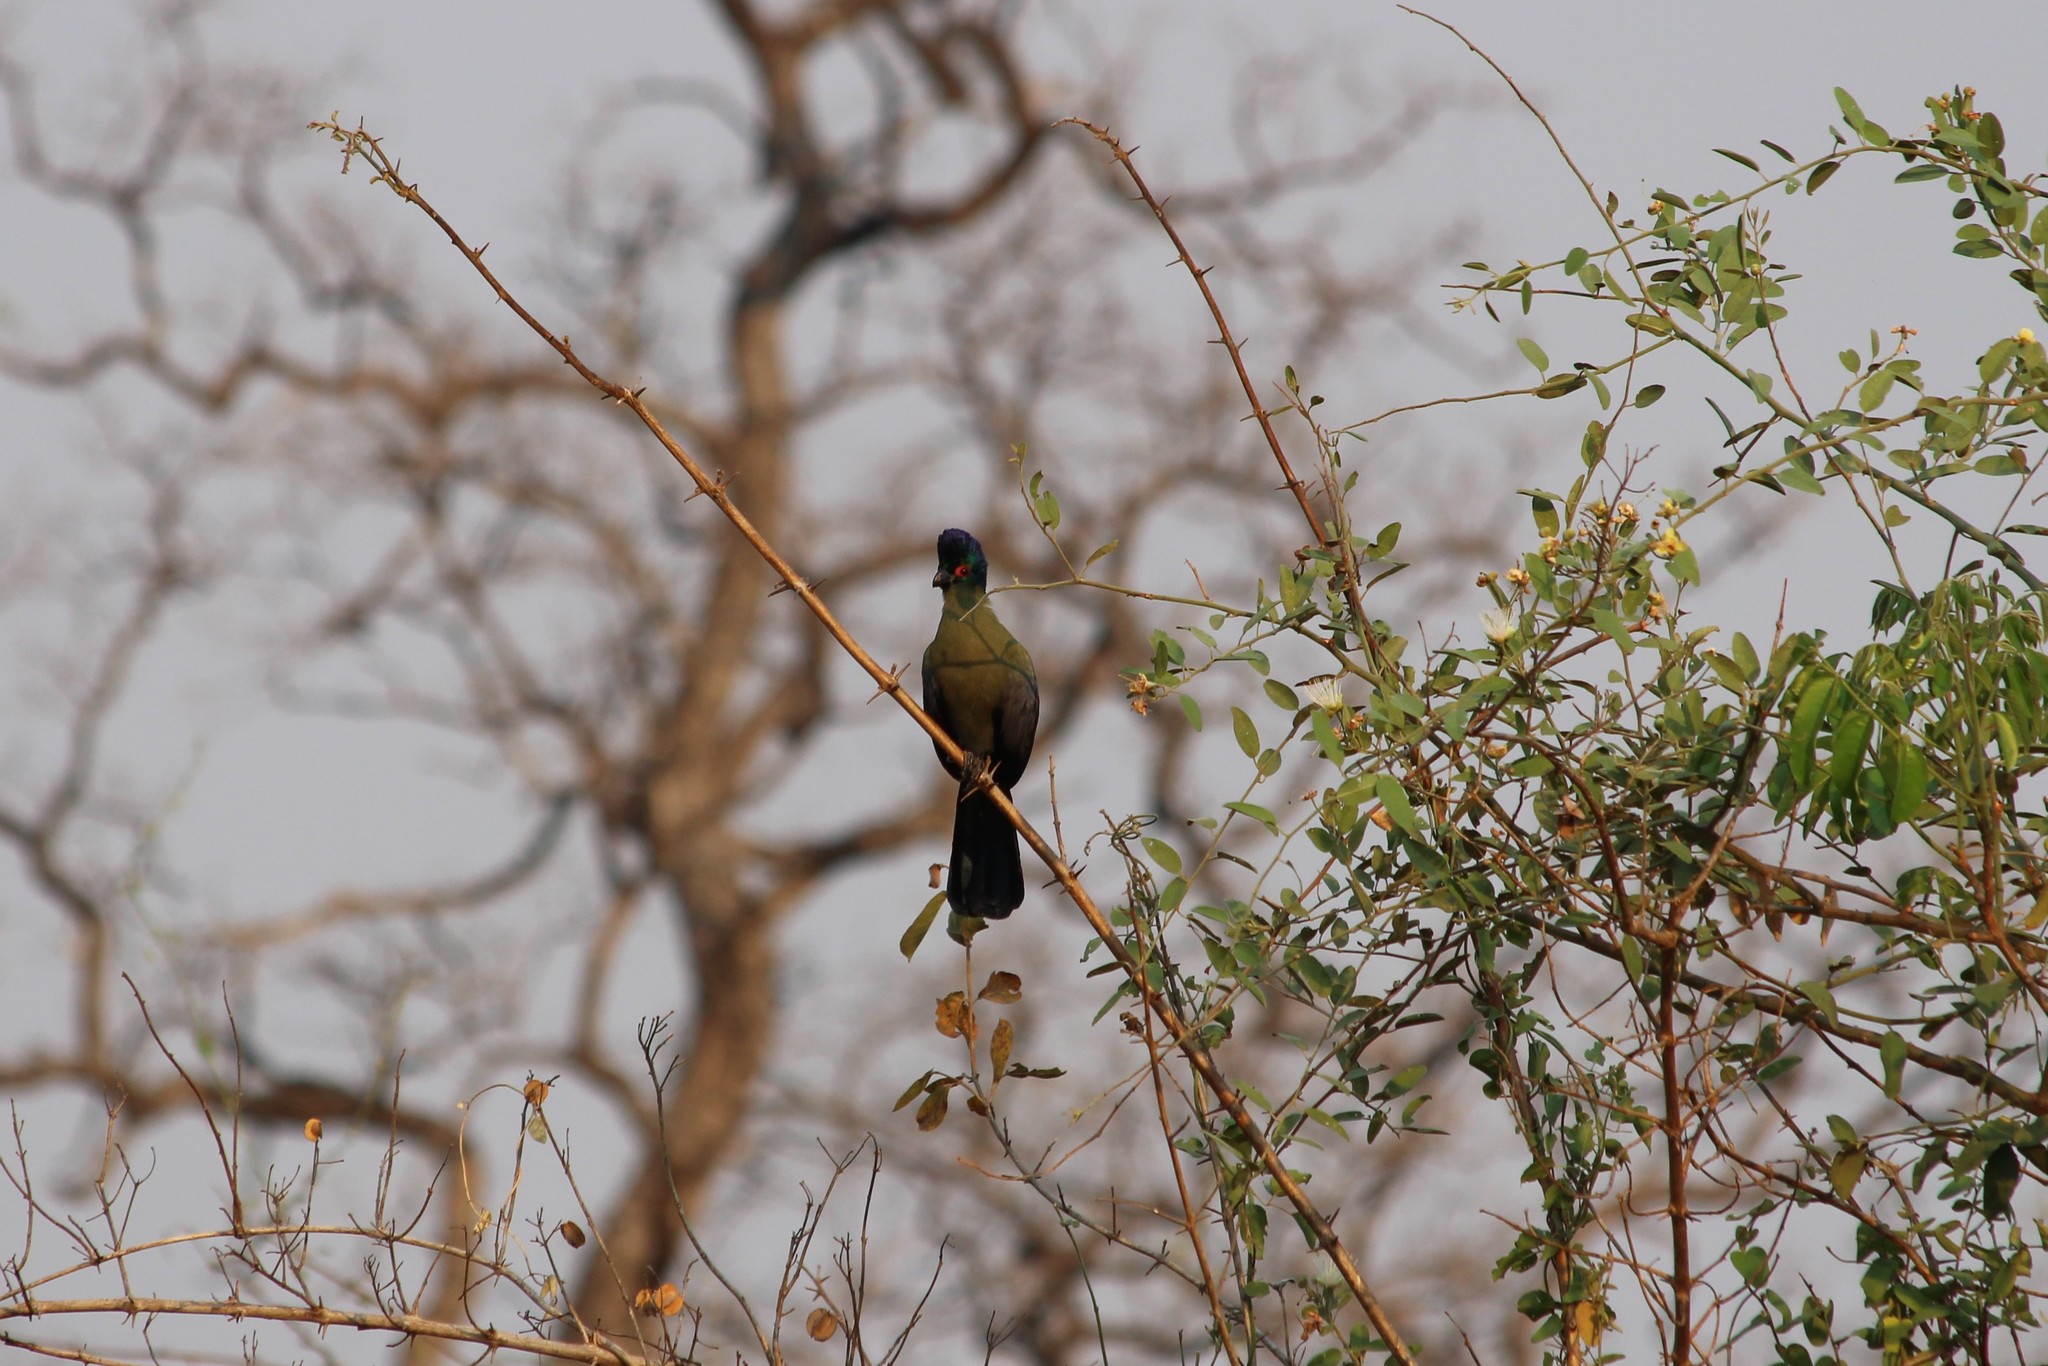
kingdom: Animalia
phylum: Chordata
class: Aves
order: Musophagiformes
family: Musophagidae
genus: Tauraco
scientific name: Tauraco porphyreolophus
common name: Purple-crested turaco
